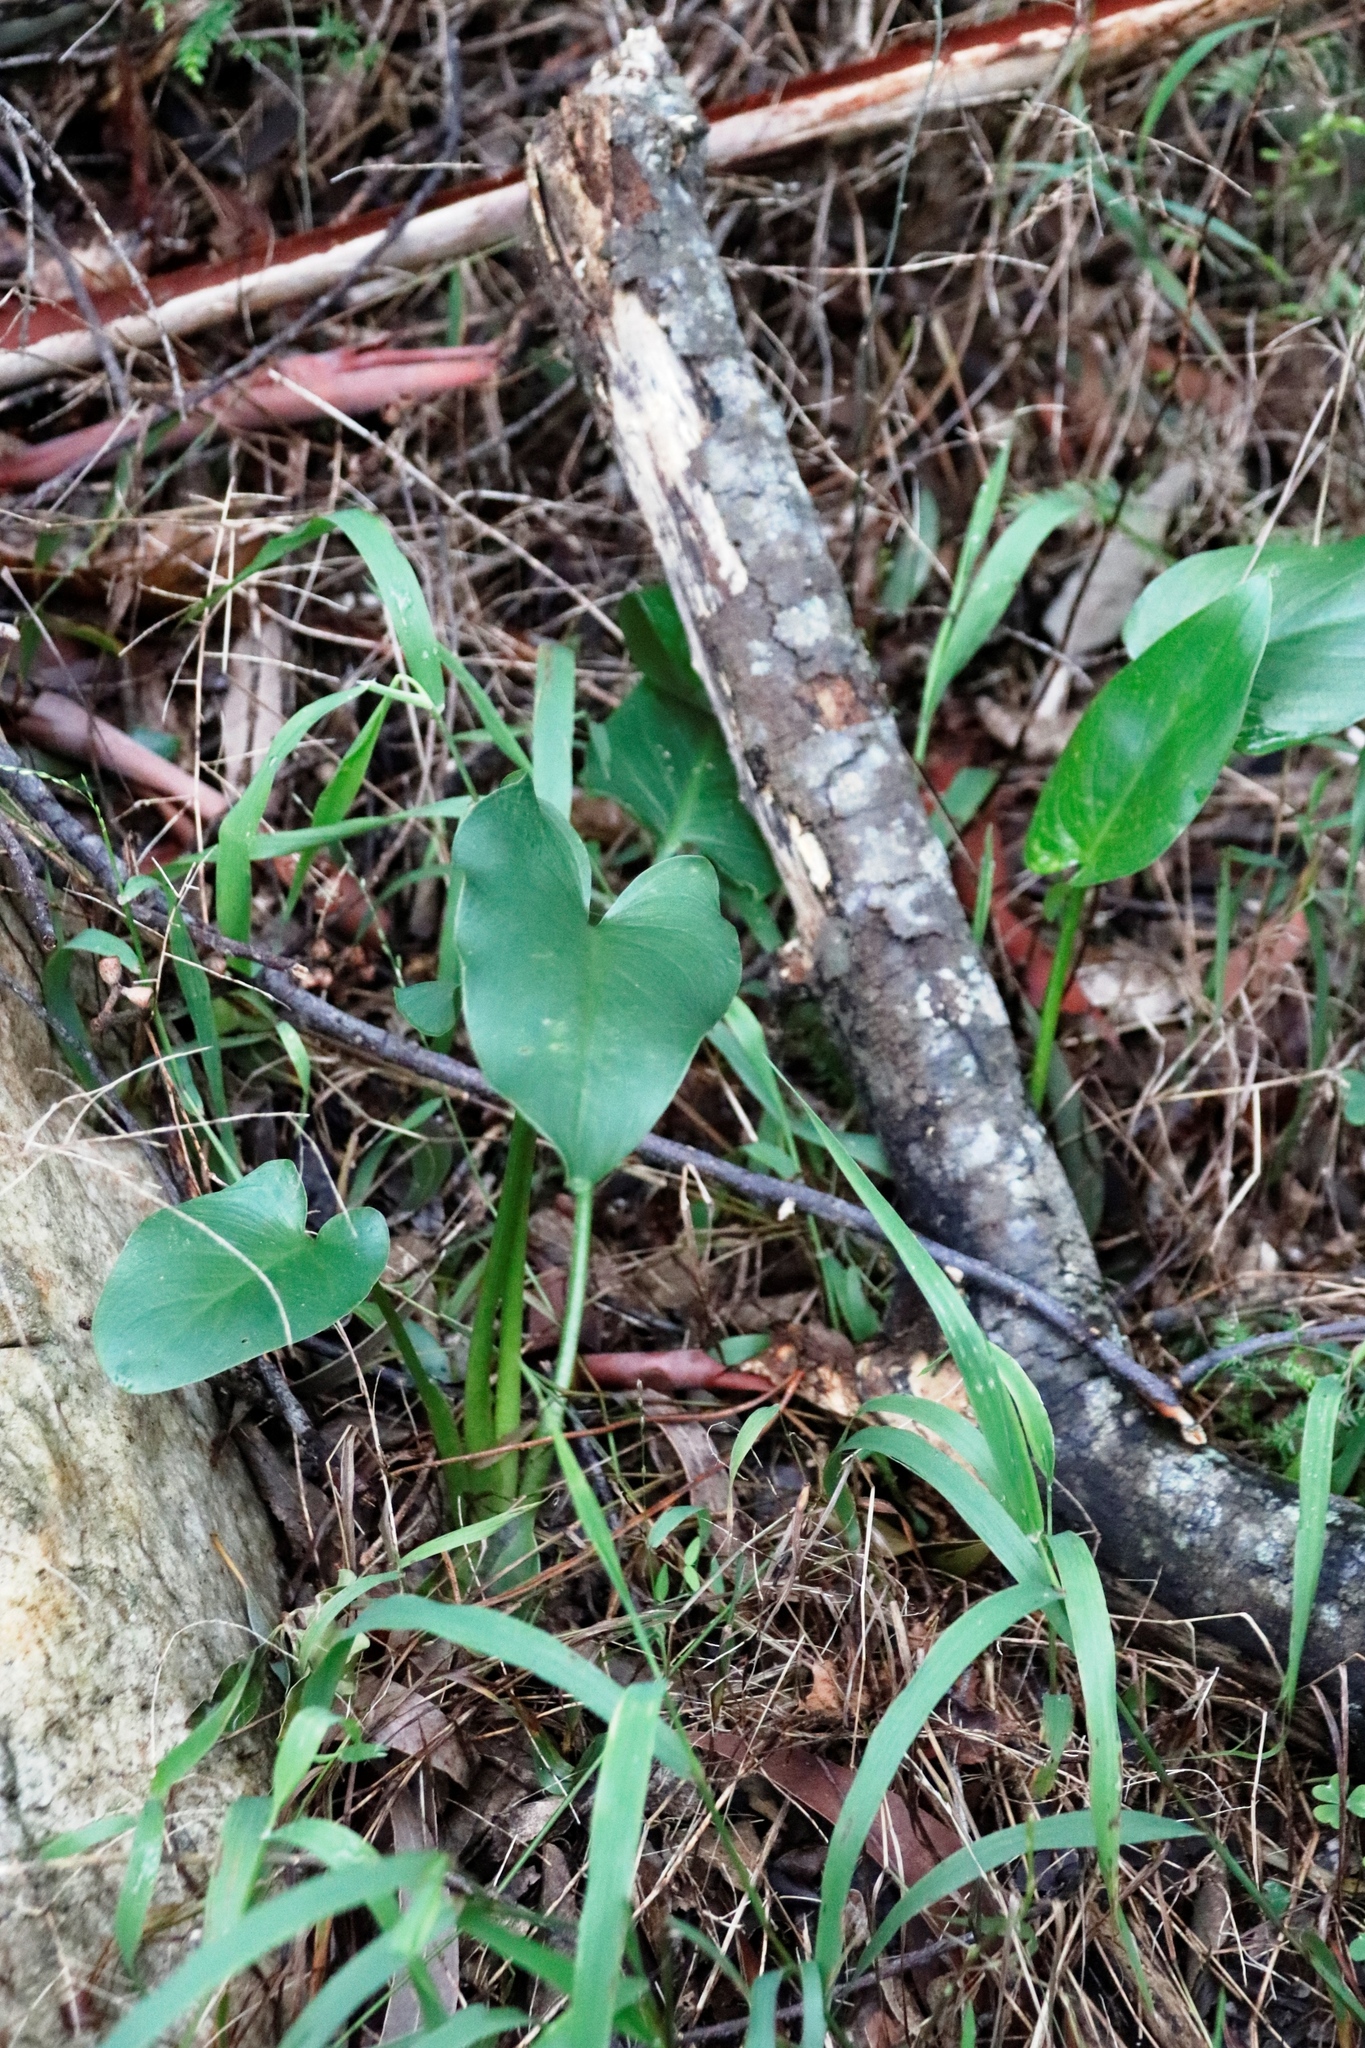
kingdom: Plantae
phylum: Tracheophyta
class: Liliopsida
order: Alismatales
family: Araceae
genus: Zantedeschia
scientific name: Zantedeschia aethiopica
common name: Altar-lily
